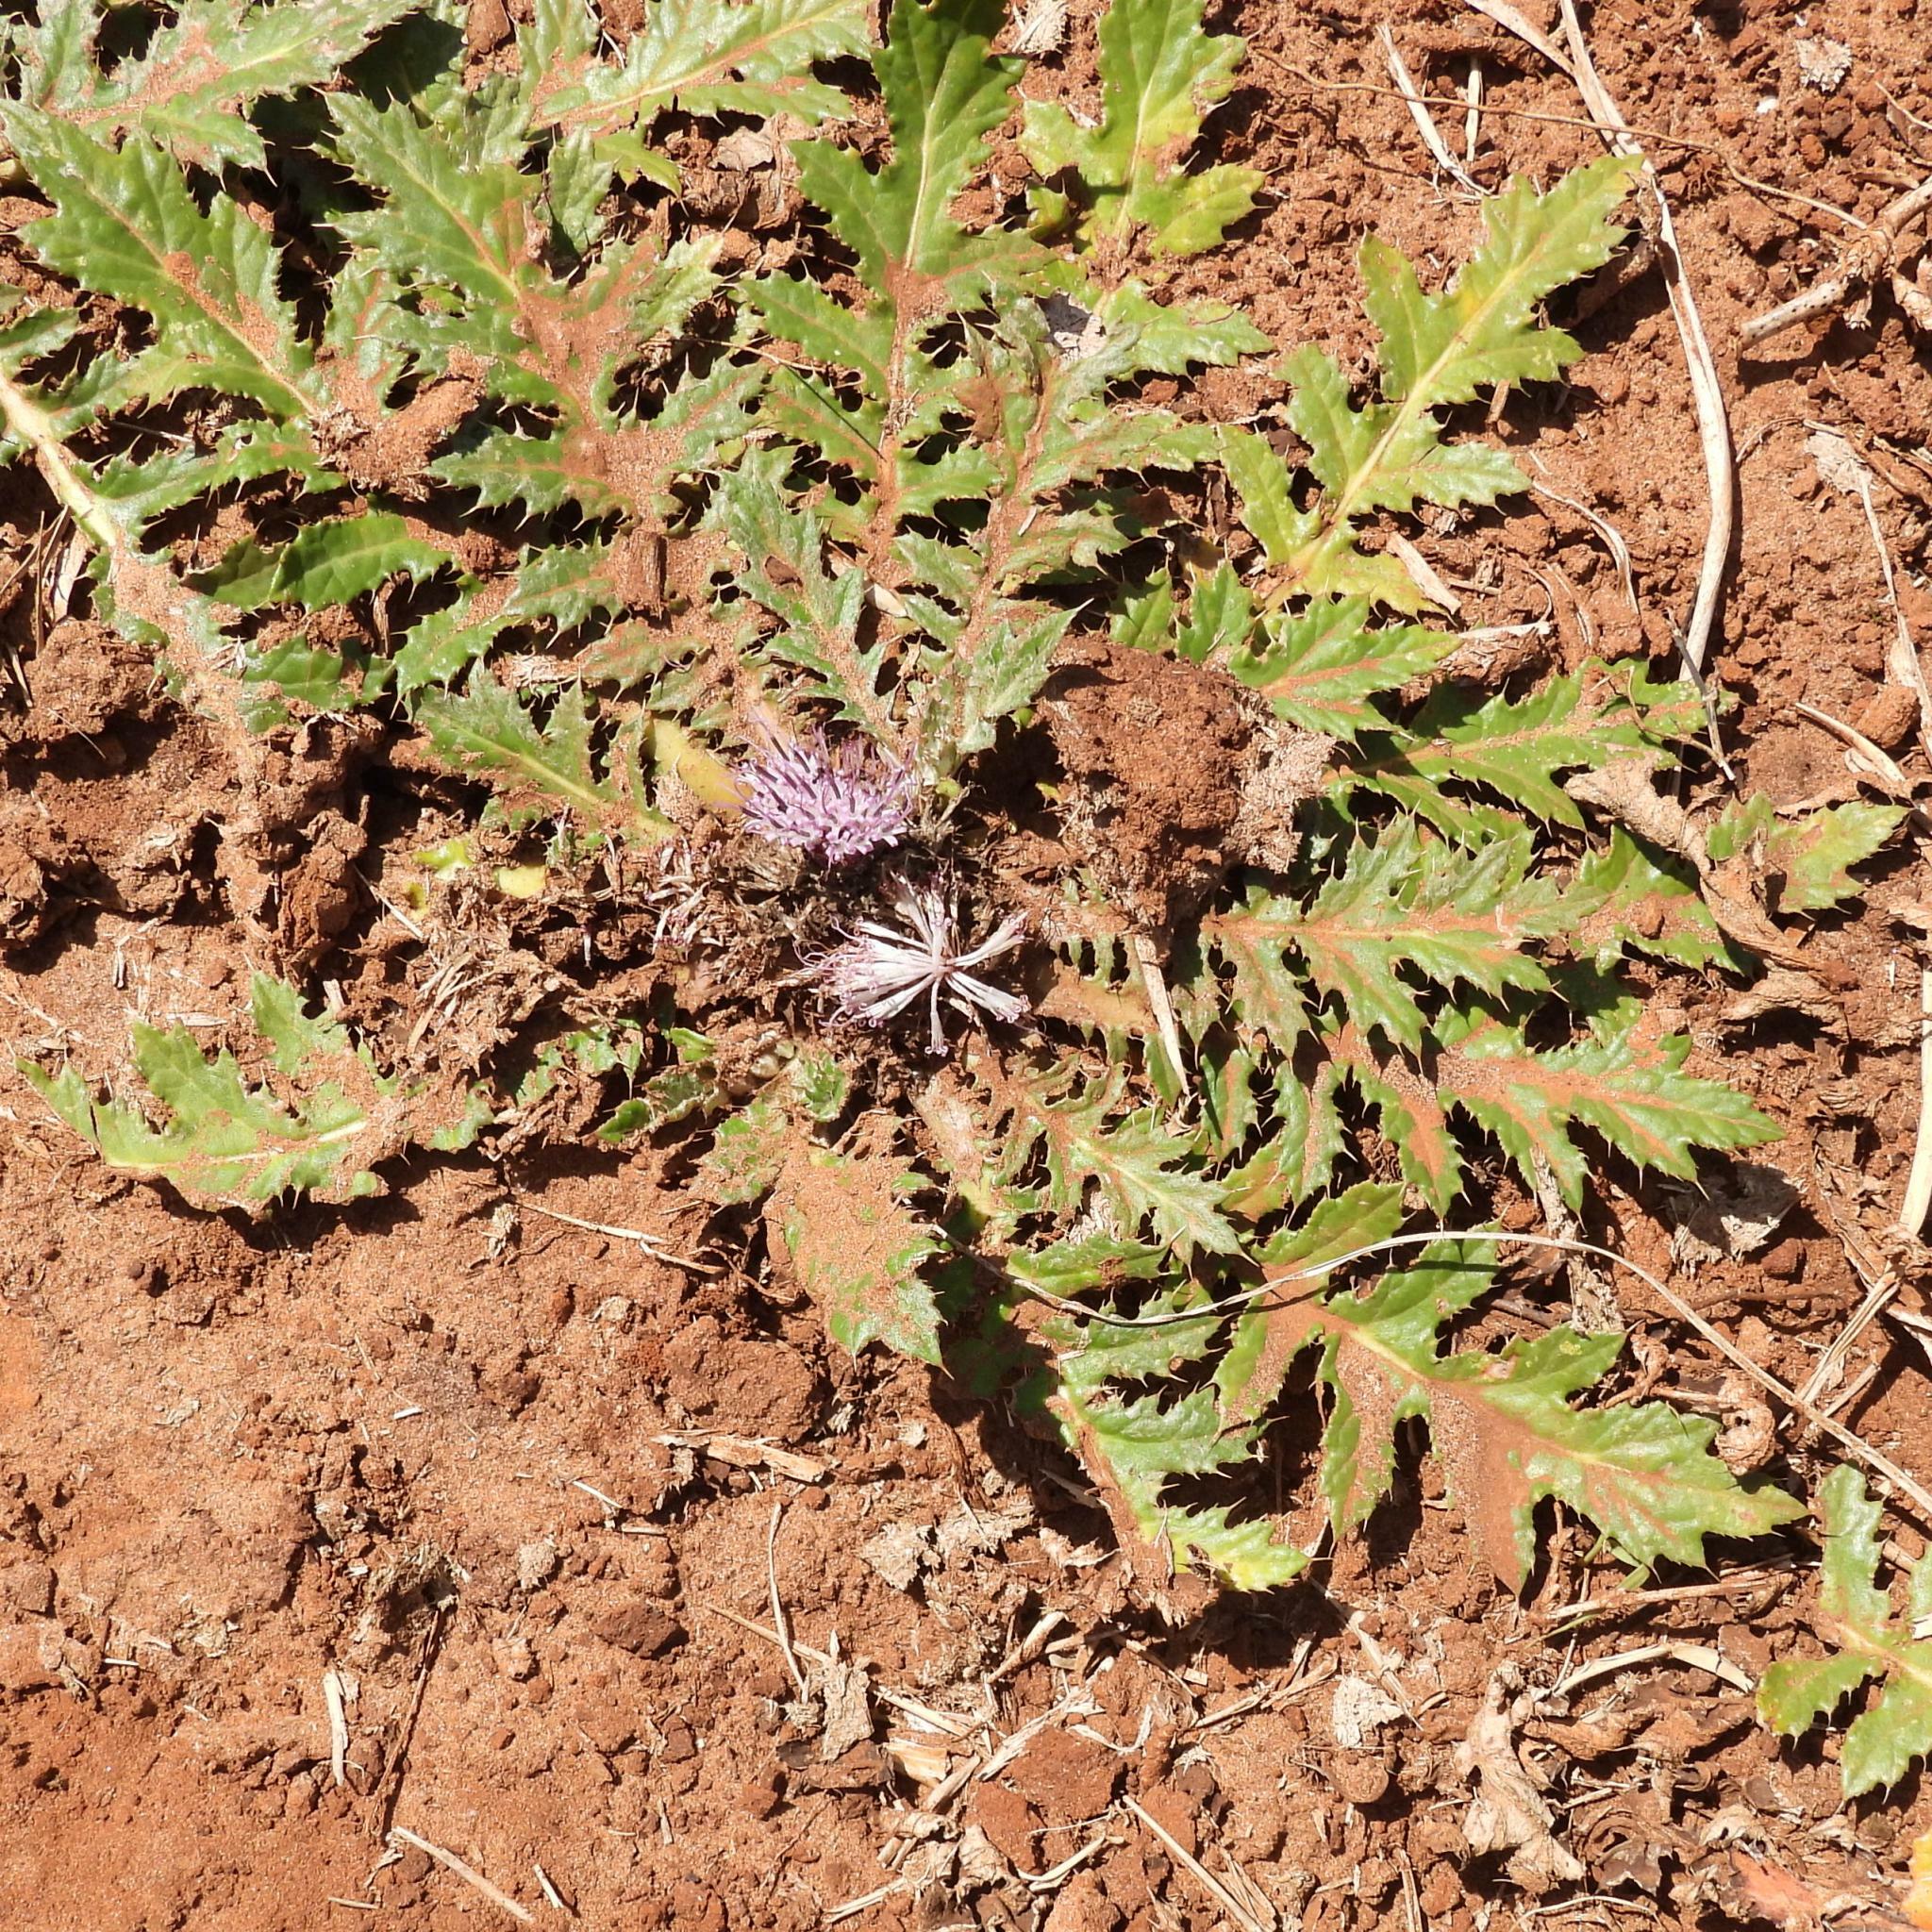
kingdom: Plantae
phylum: Tracheophyta
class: Magnoliopsida
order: Asterales
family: Asteraceae
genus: Platycarpha
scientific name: Platycarpha glomerata
